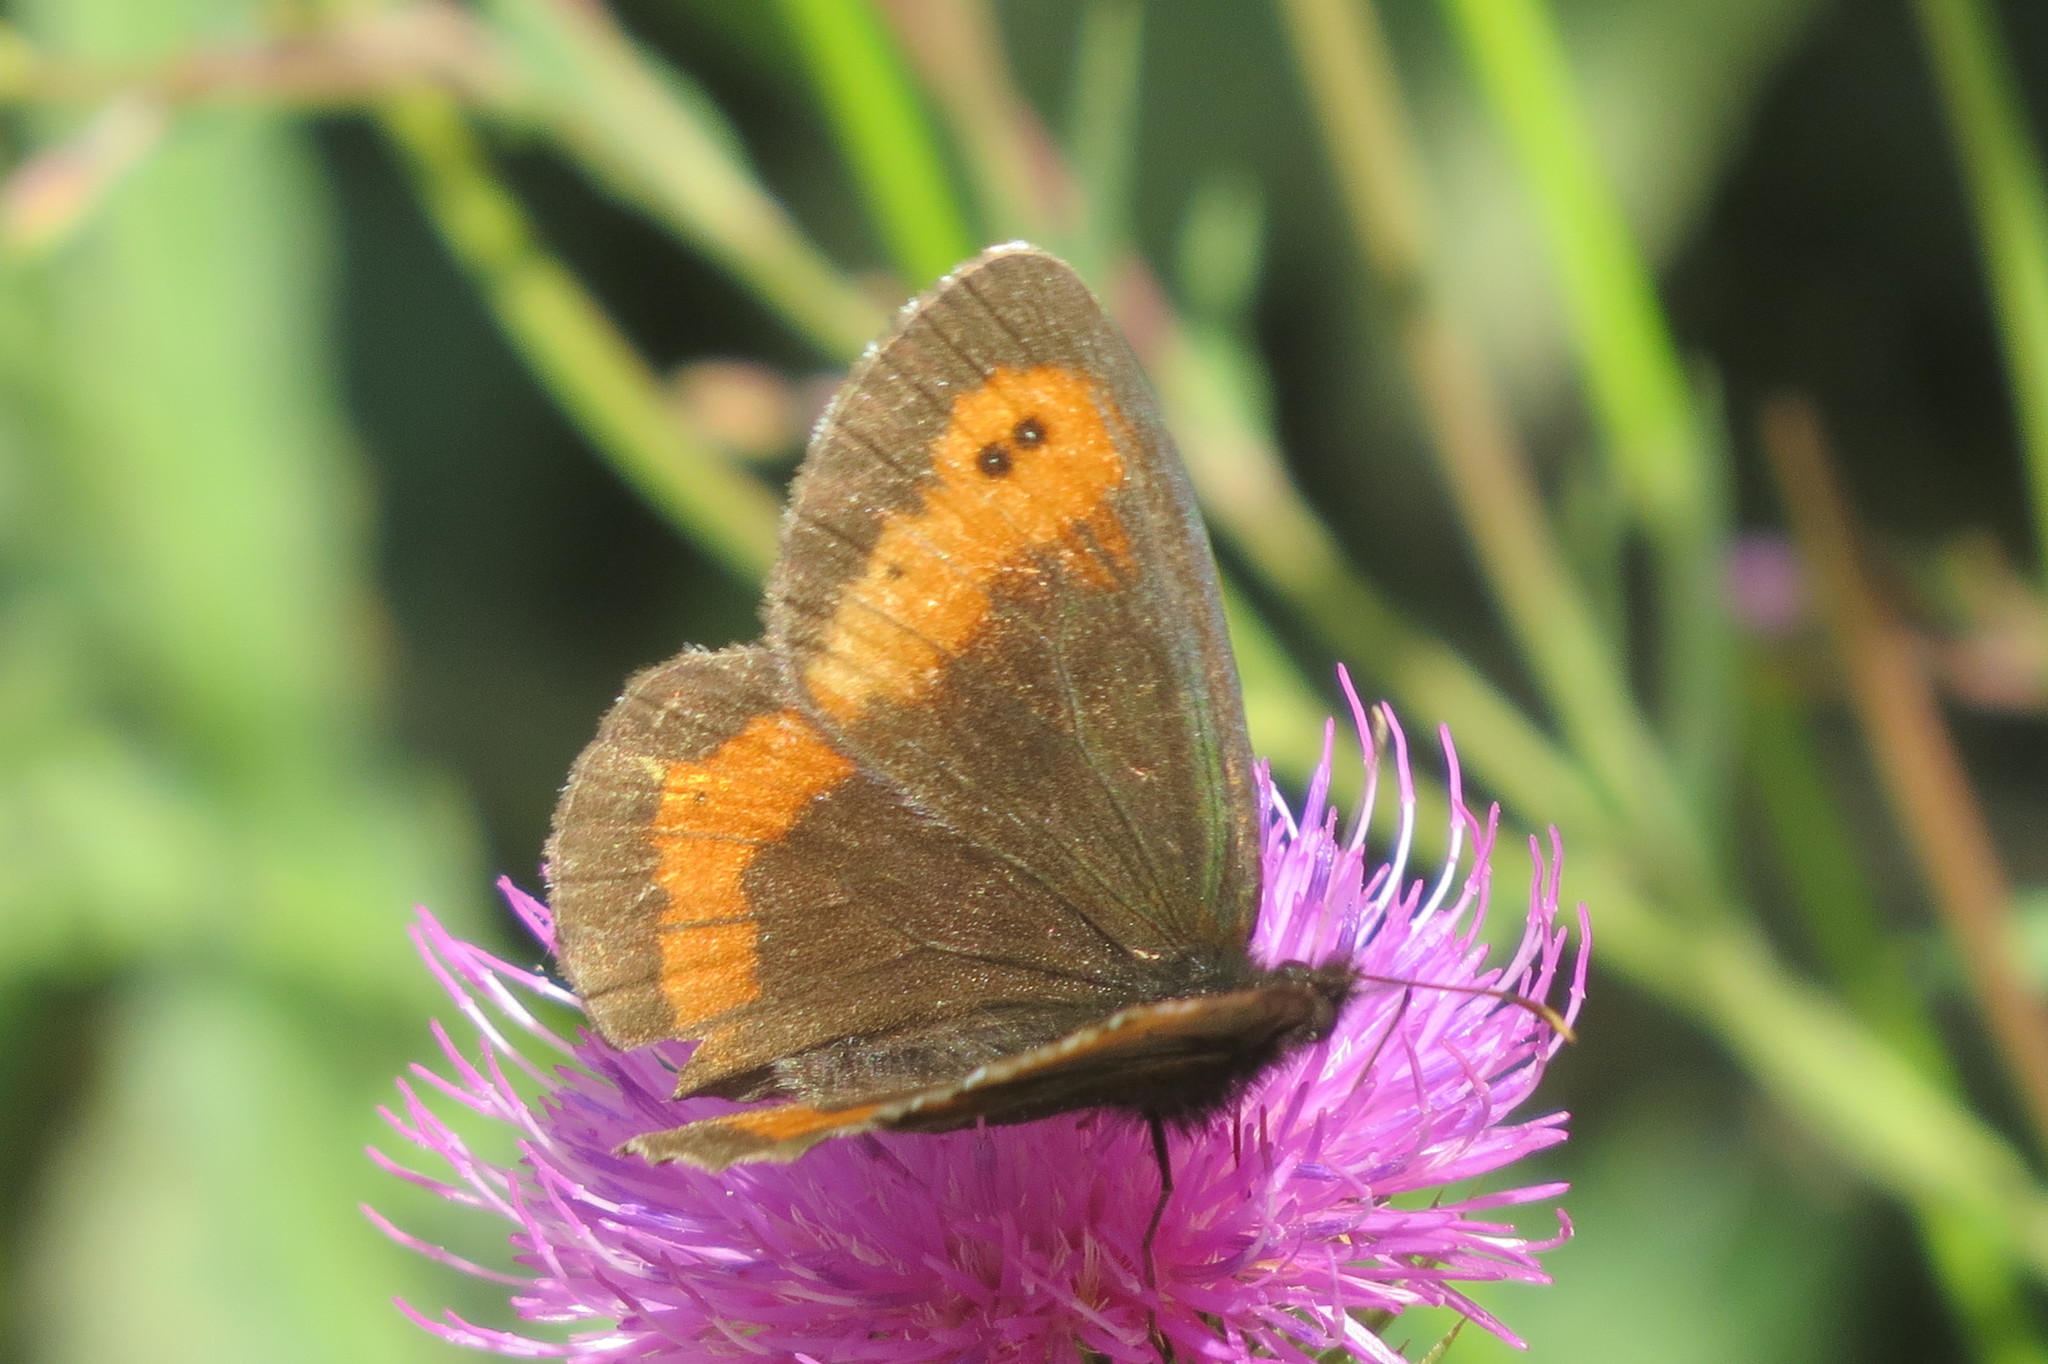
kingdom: Animalia
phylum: Arthropoda
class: Insecta
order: Lepidoptera
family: Nymphalidae
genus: Erebia
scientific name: Erebia euryale
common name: Large ringlet
